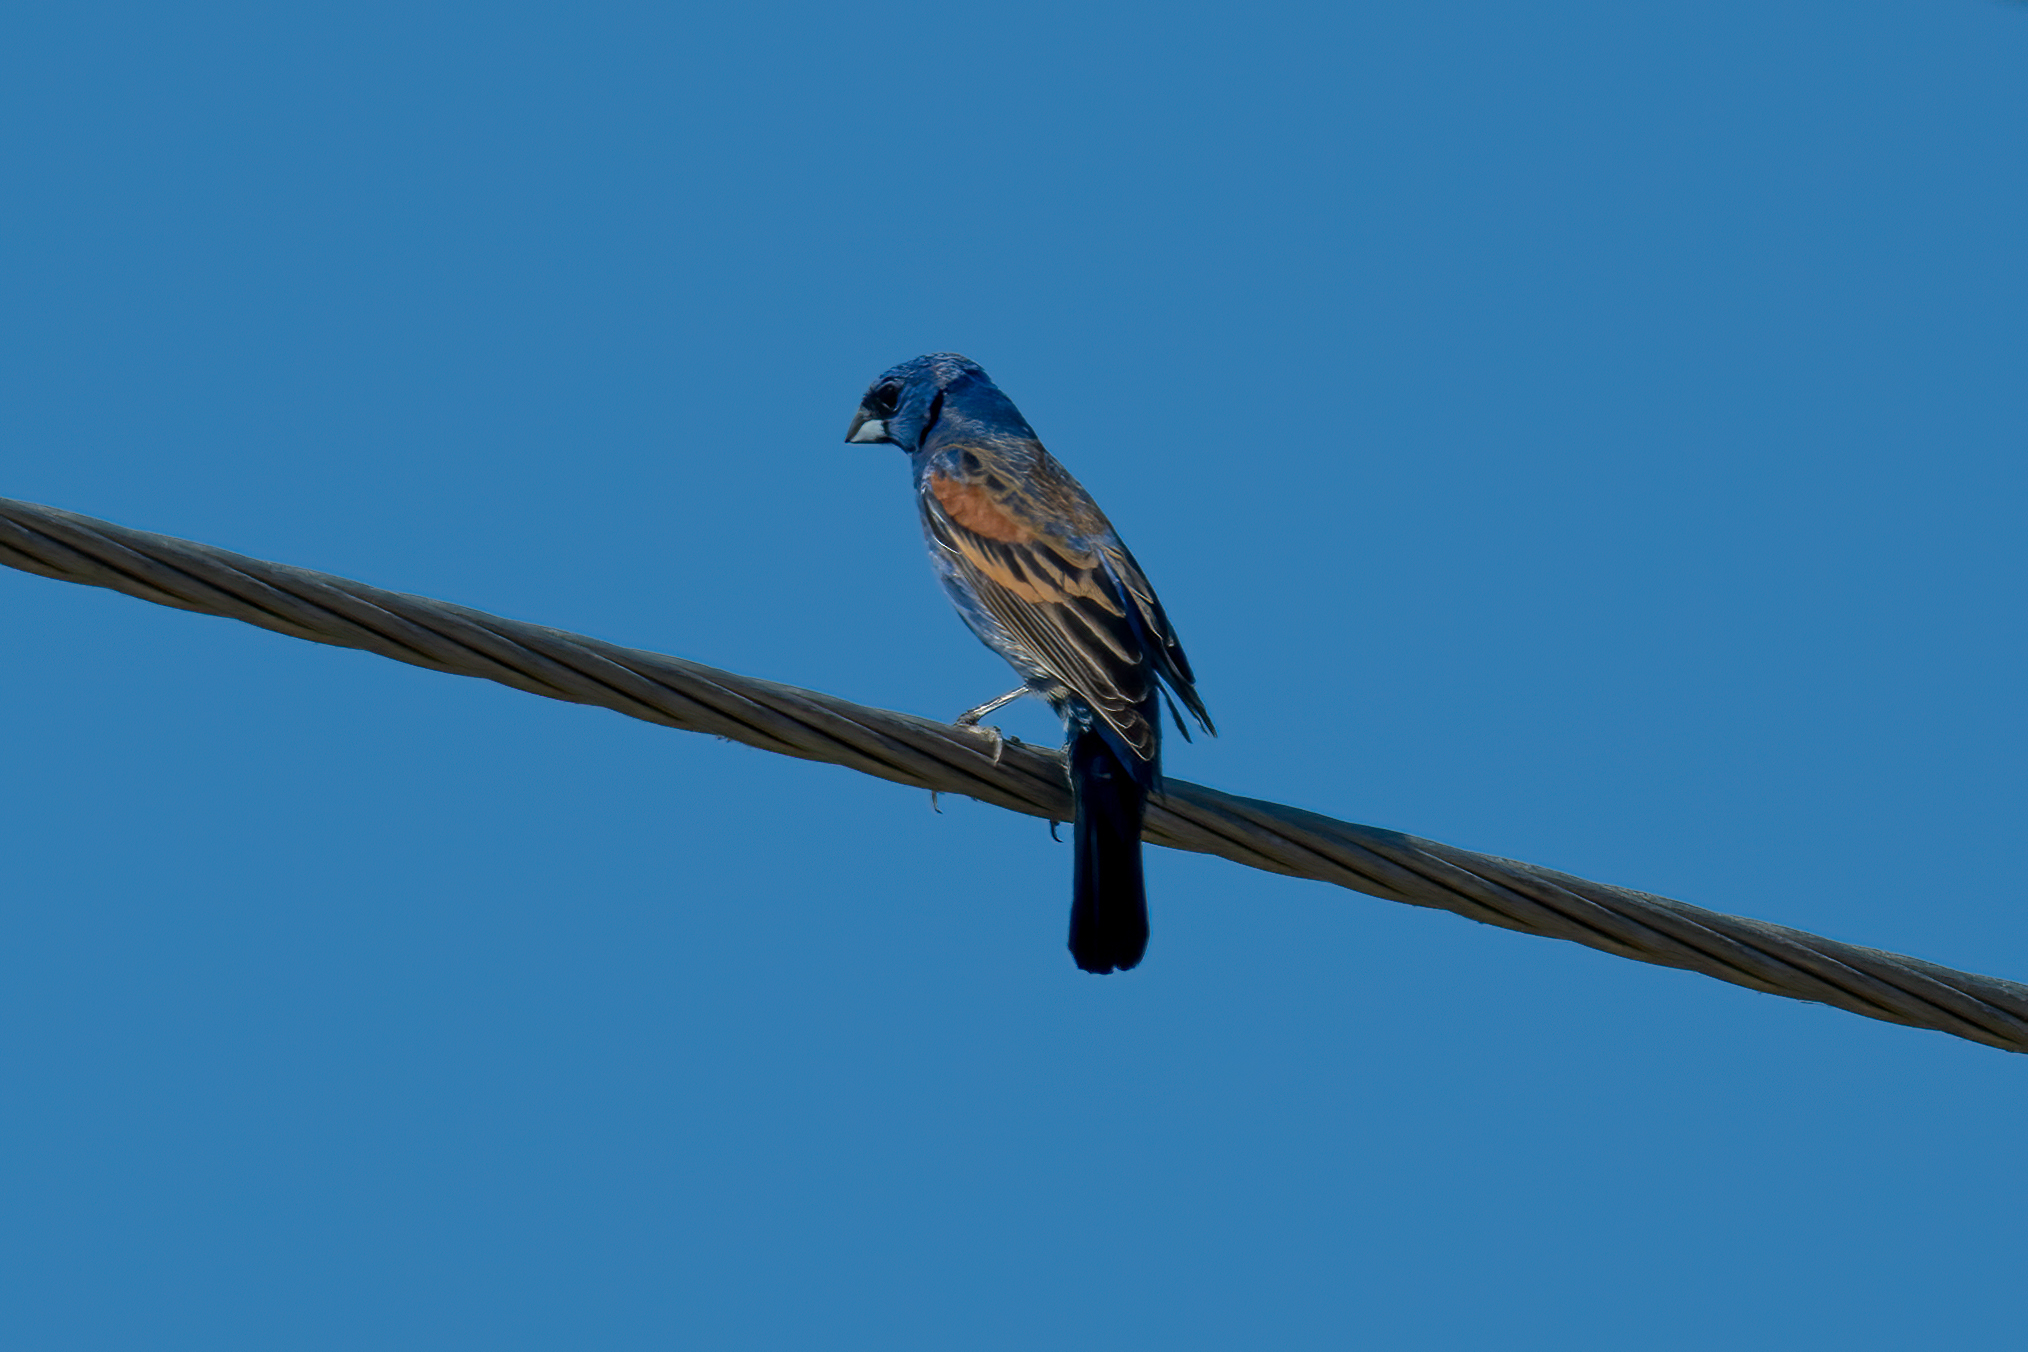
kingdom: Animalia
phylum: Chordata
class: Aves
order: Passeriformes
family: Cardinalidae
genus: Passerina
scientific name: Passerina caerulea
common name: Blue grosbeak
